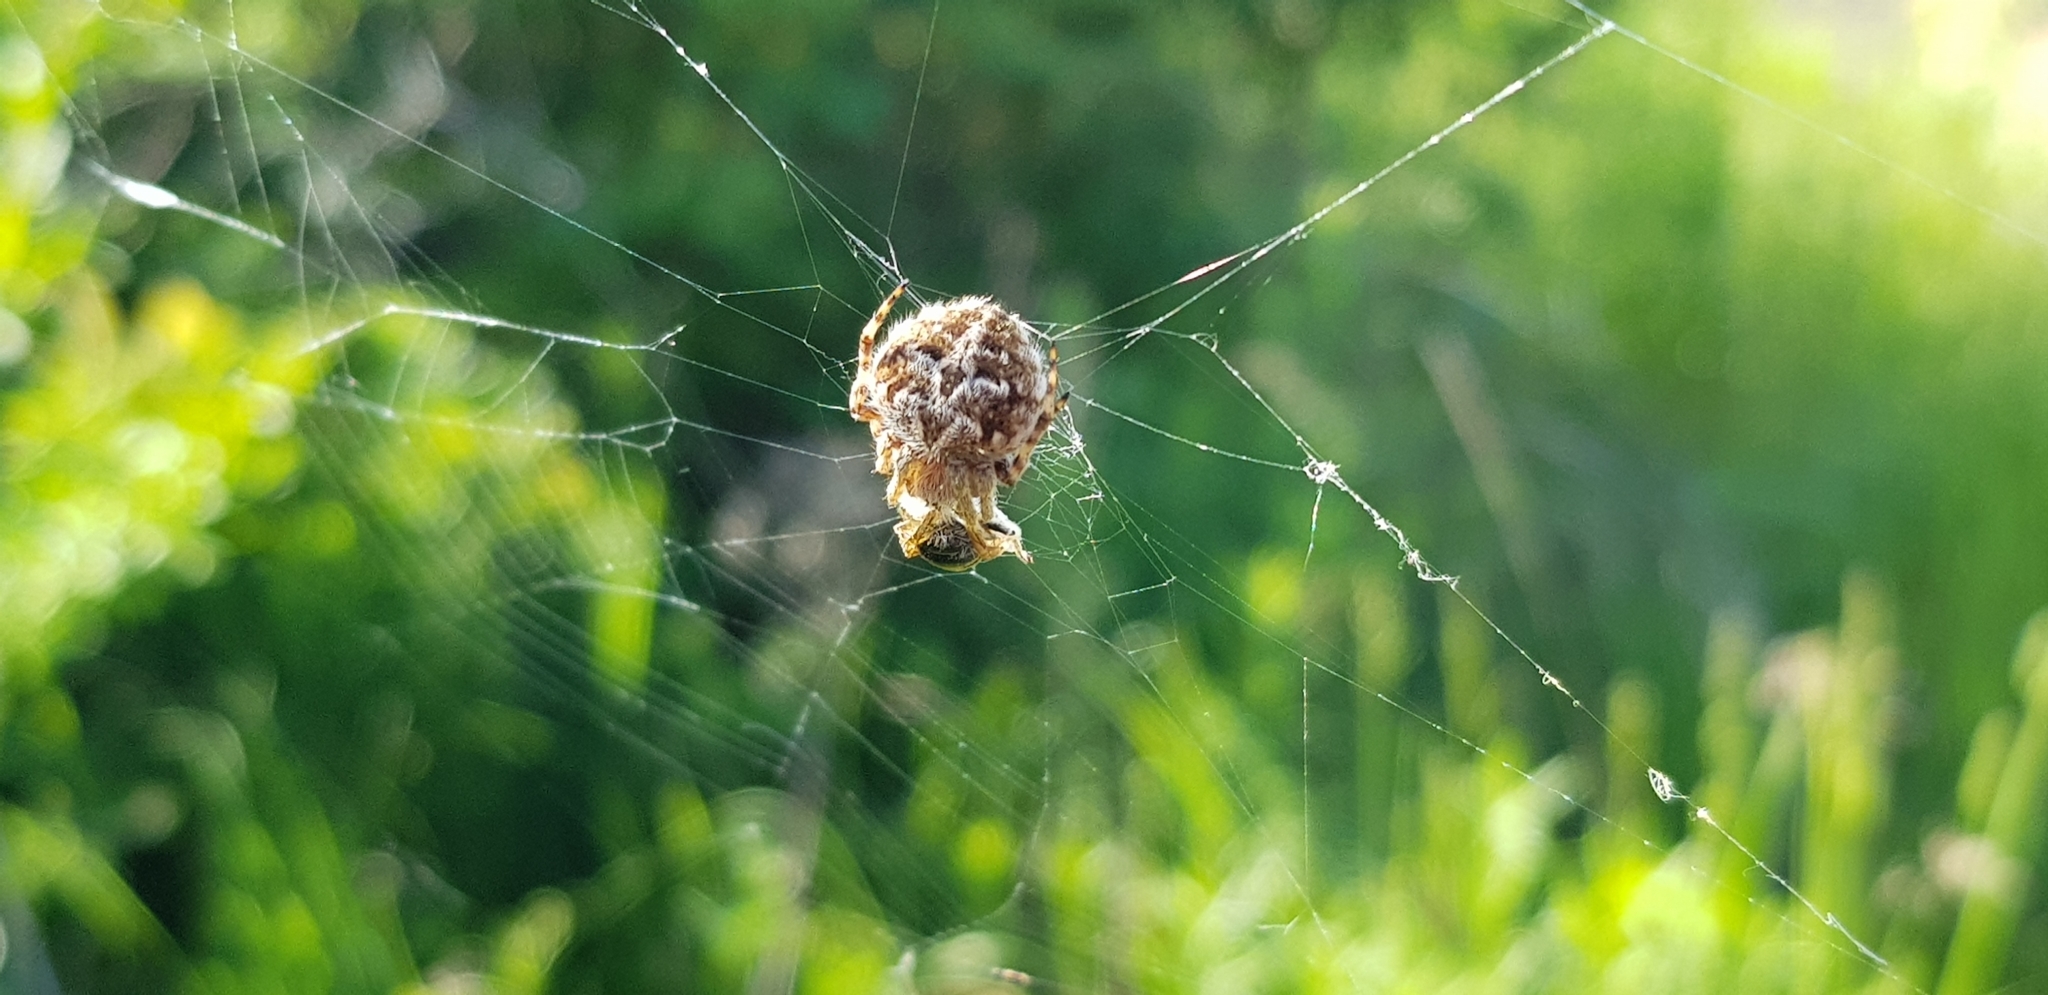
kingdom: Animalia
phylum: Arthropoda
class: Arachnida
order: Araneae
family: Araneidae
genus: Agalenatea
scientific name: Agalenatea redii
